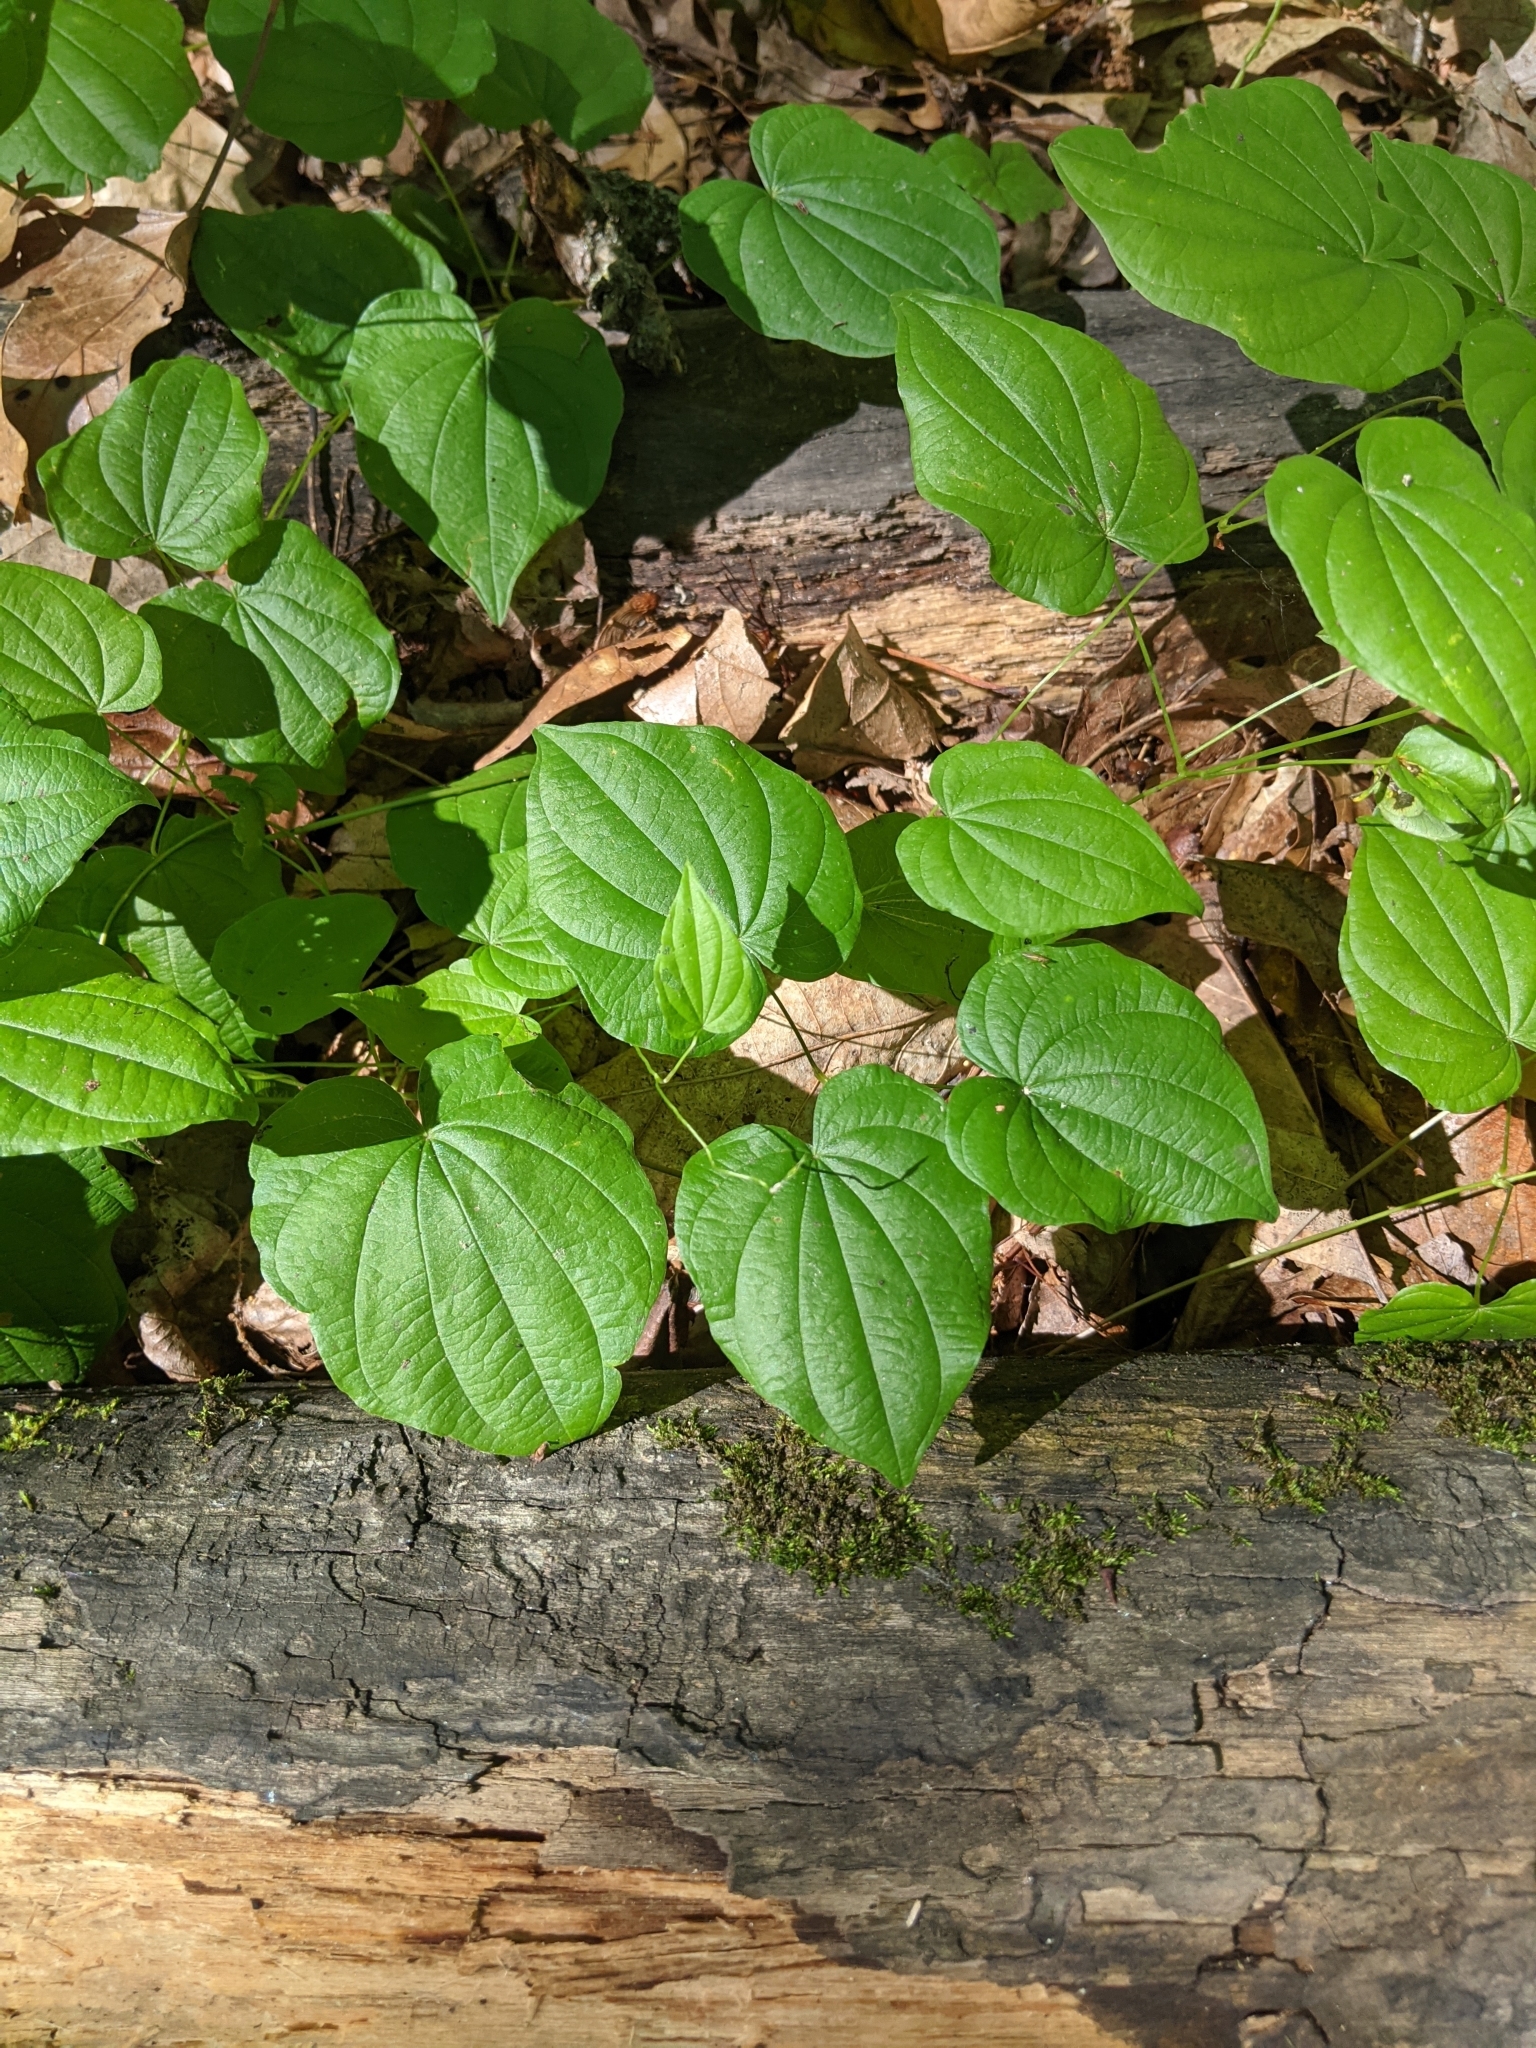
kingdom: Plantae
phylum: Tracheophyta
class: Liliopsida
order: Dioscoreales
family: Dioscoreaceae
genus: Dioscorea
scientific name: Dioscorea villosa
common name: Wild yam
